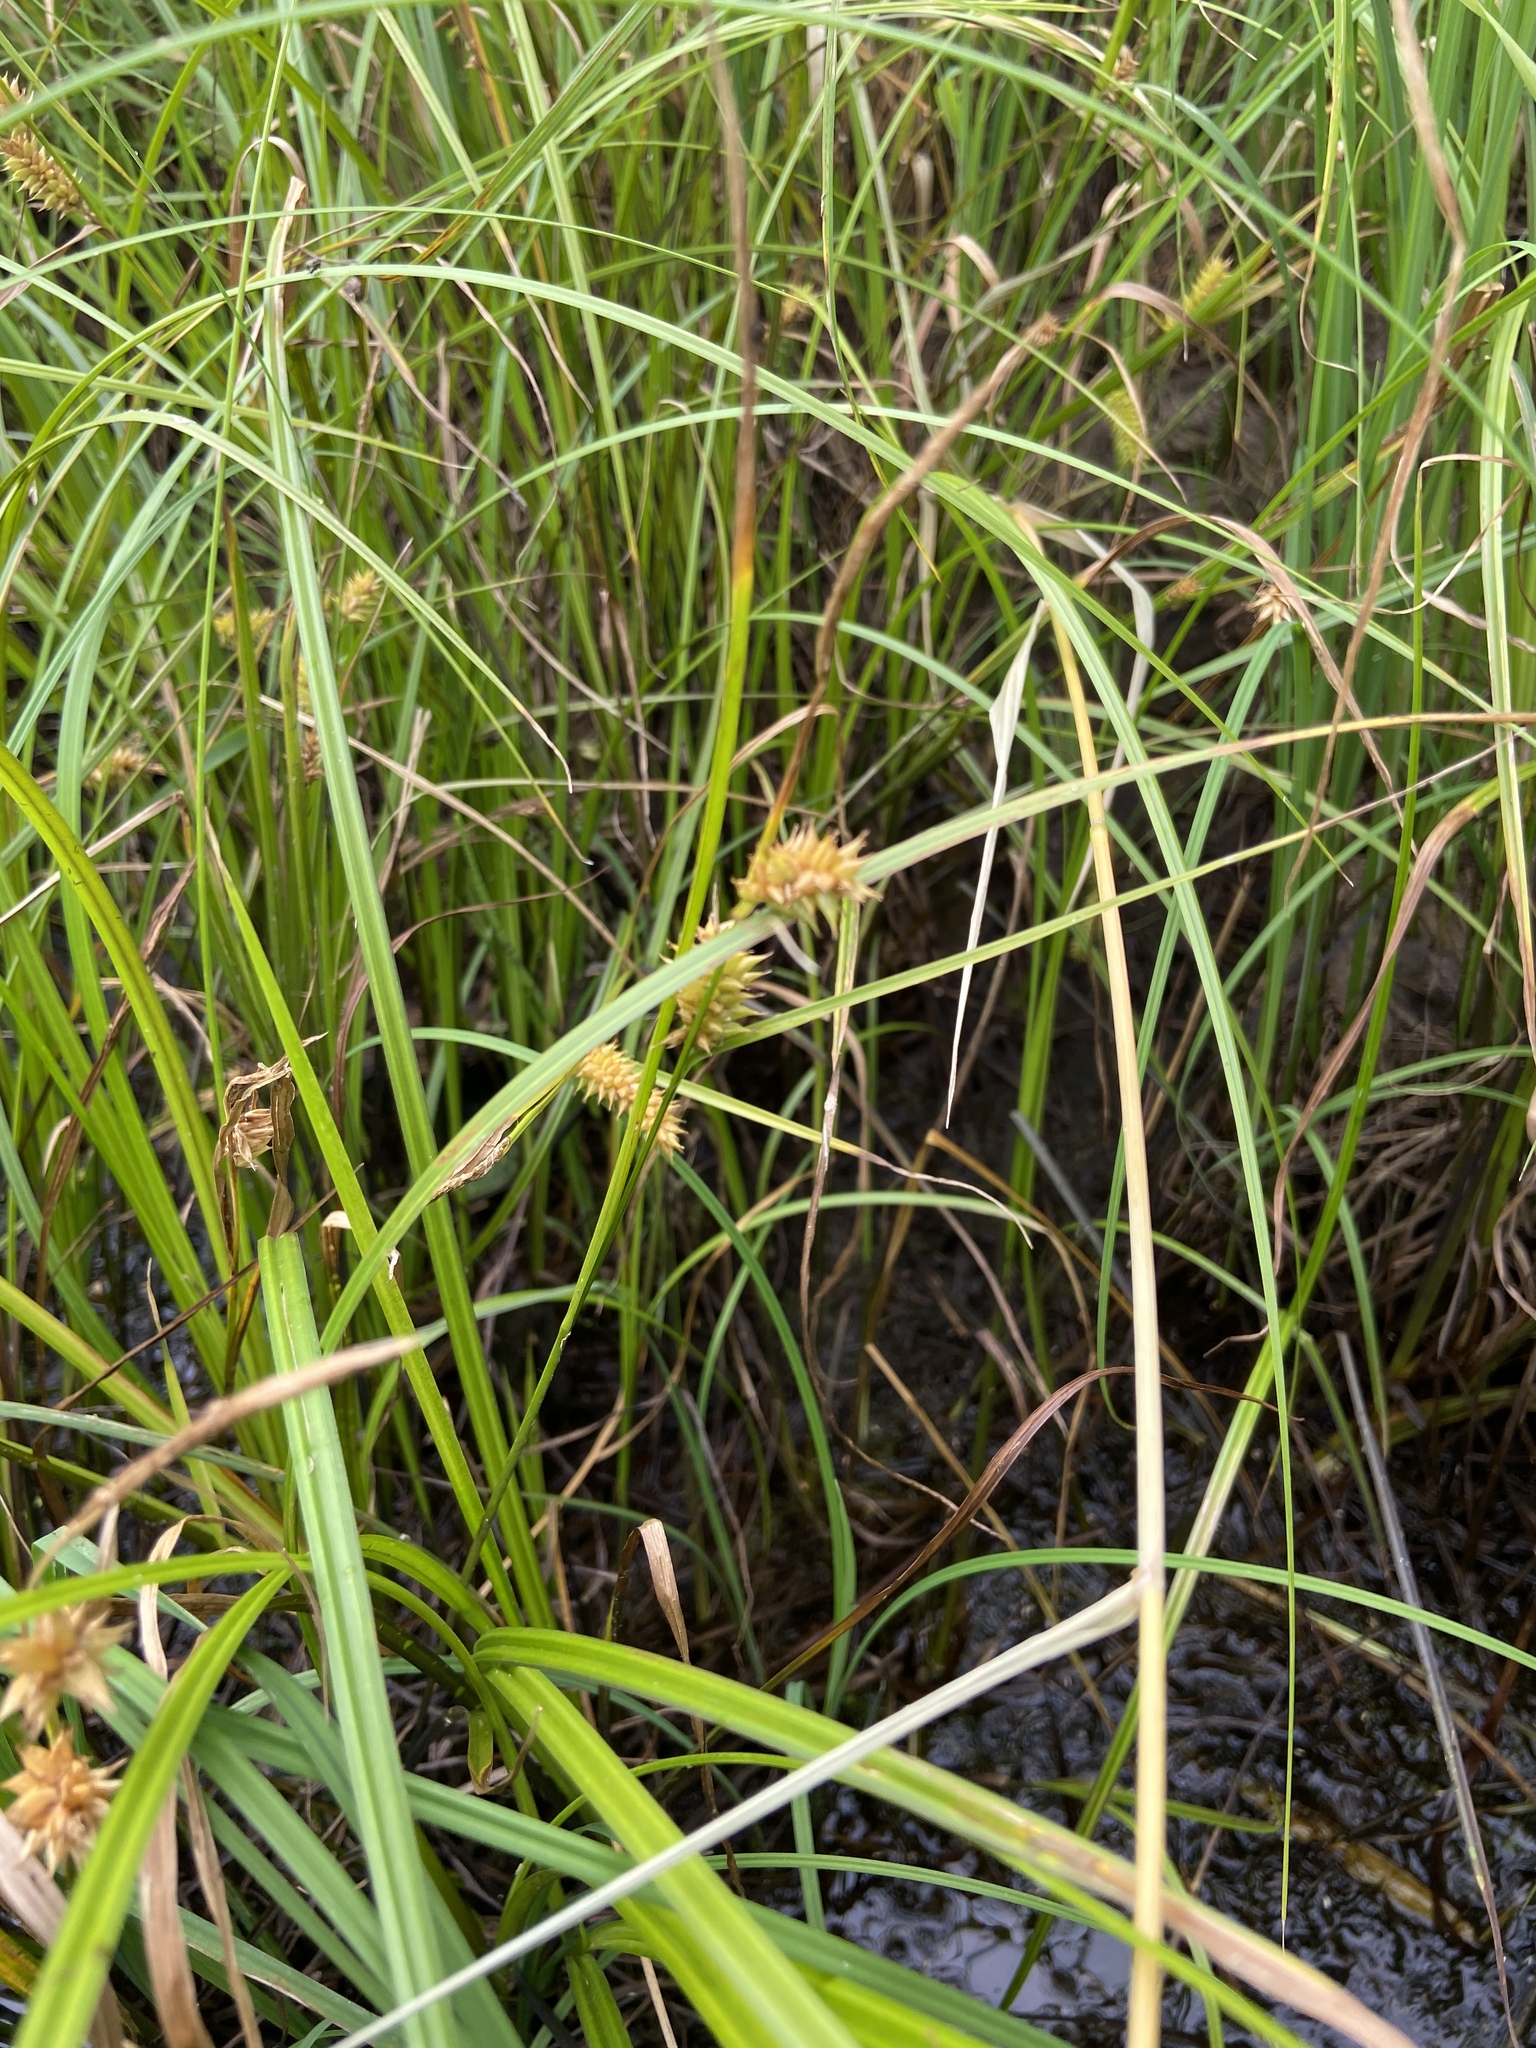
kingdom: Plantae
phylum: Tracheophyta
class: Liliopsida
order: Poales
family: Cyperaceae
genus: Carex
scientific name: Carex vesicaria
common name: Bladder-sedge
